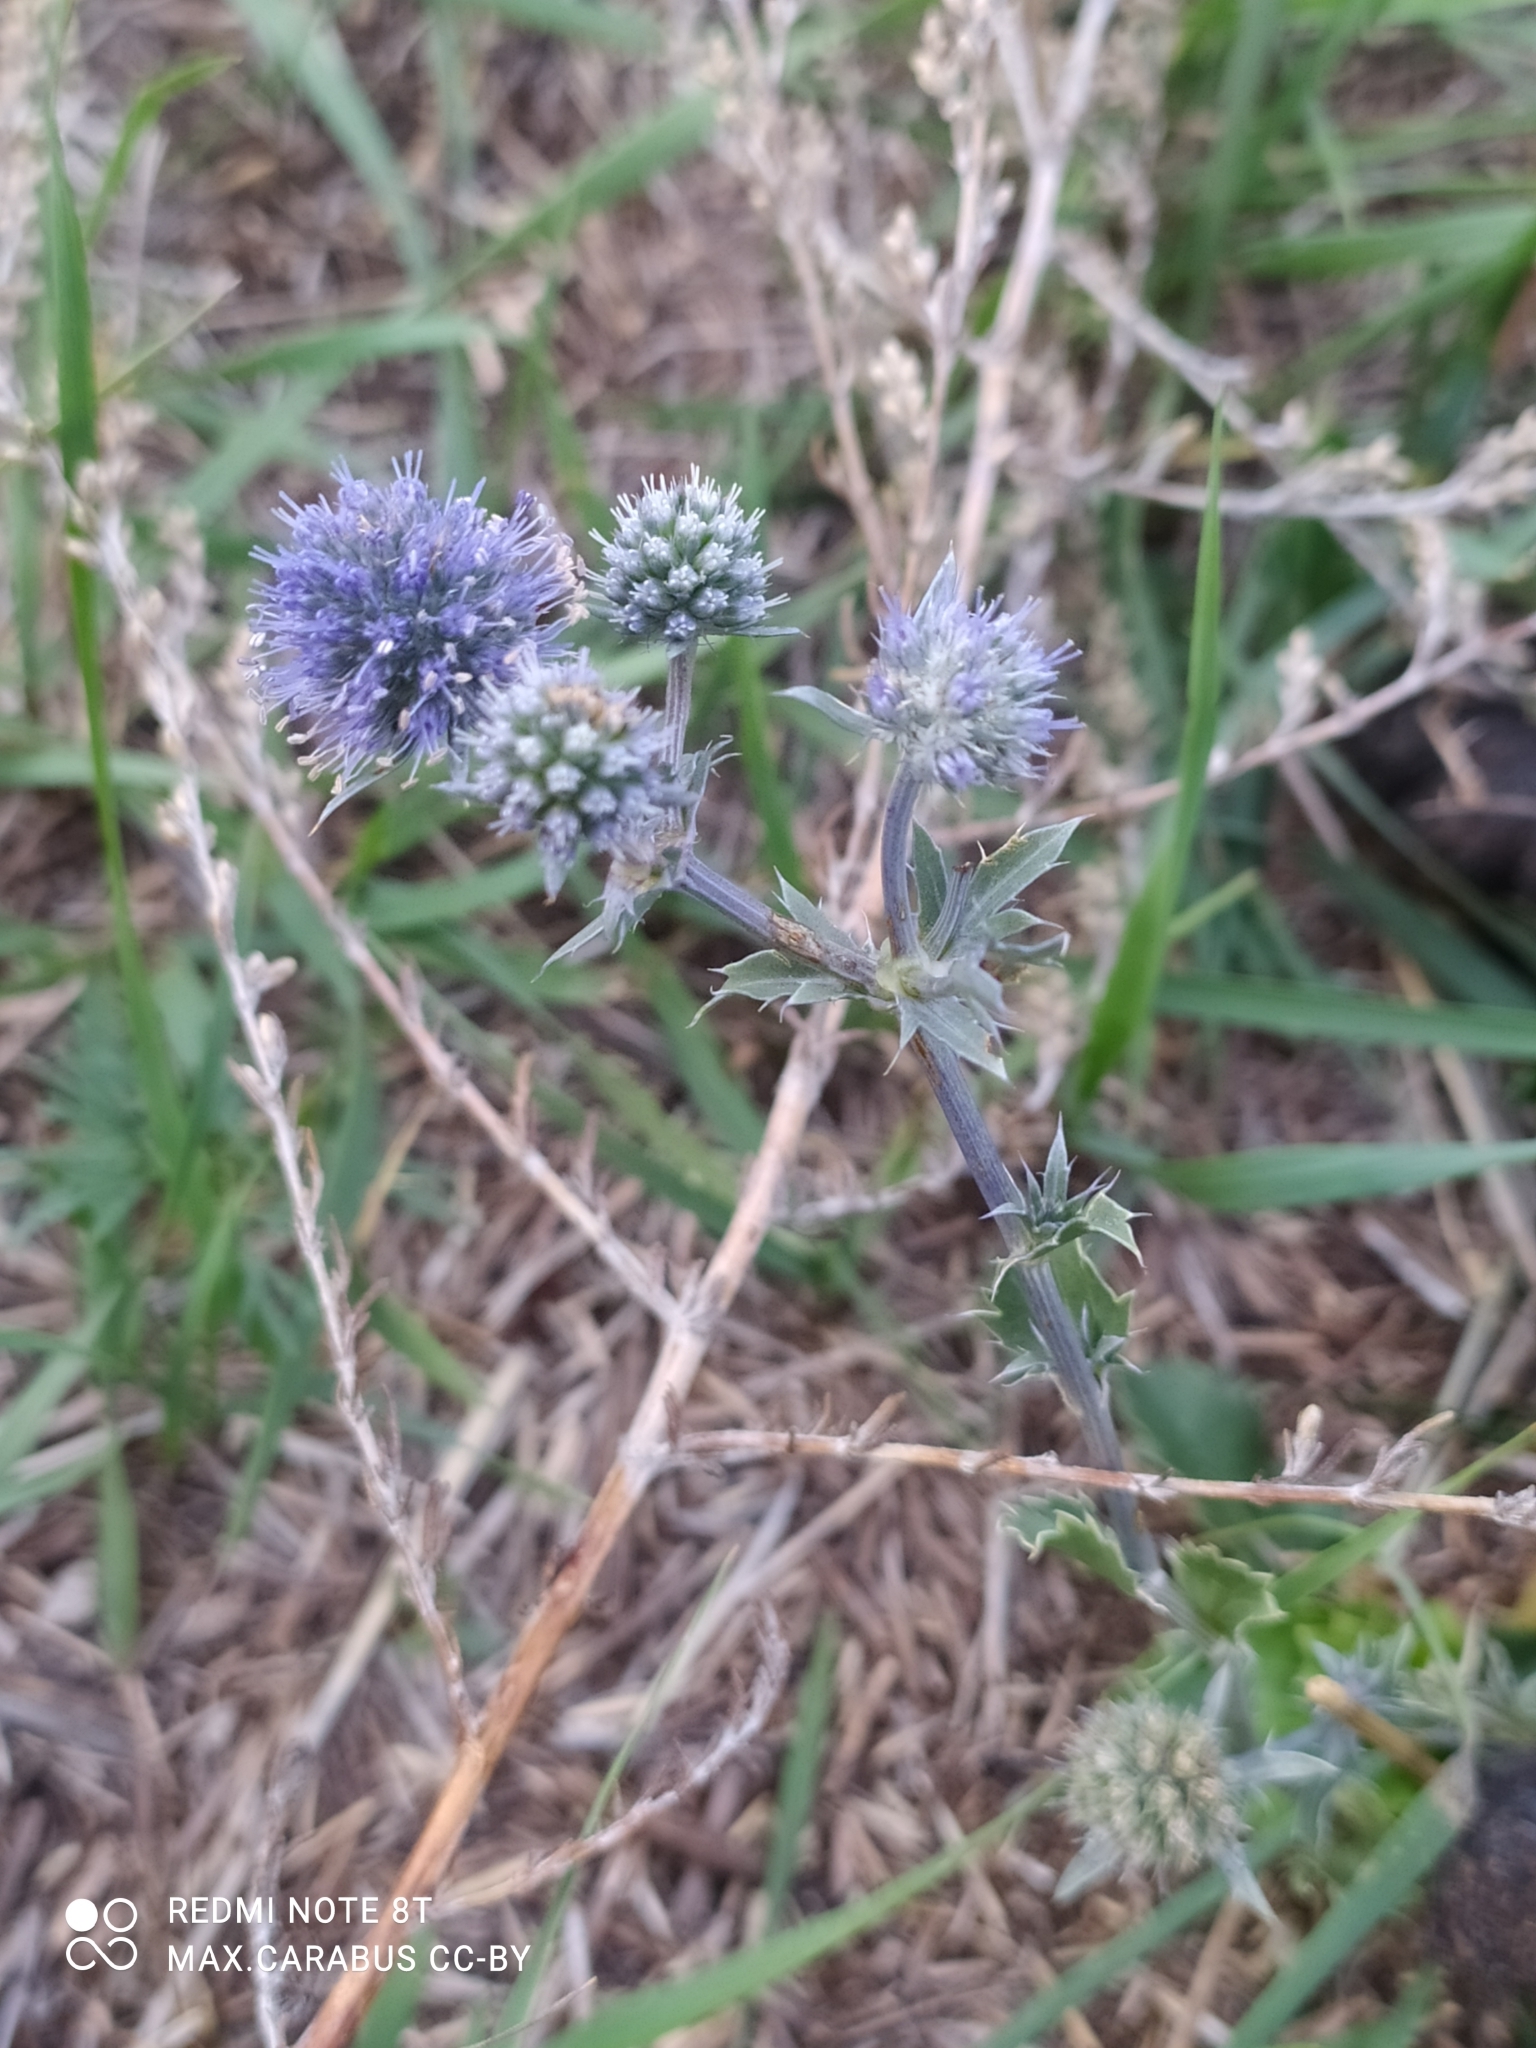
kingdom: Plantae
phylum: Tracheophyta
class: Magnoliopsida
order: Apiales
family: Apiaceae
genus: Eryngium
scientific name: Eryngium planum
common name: Blue eryngo
